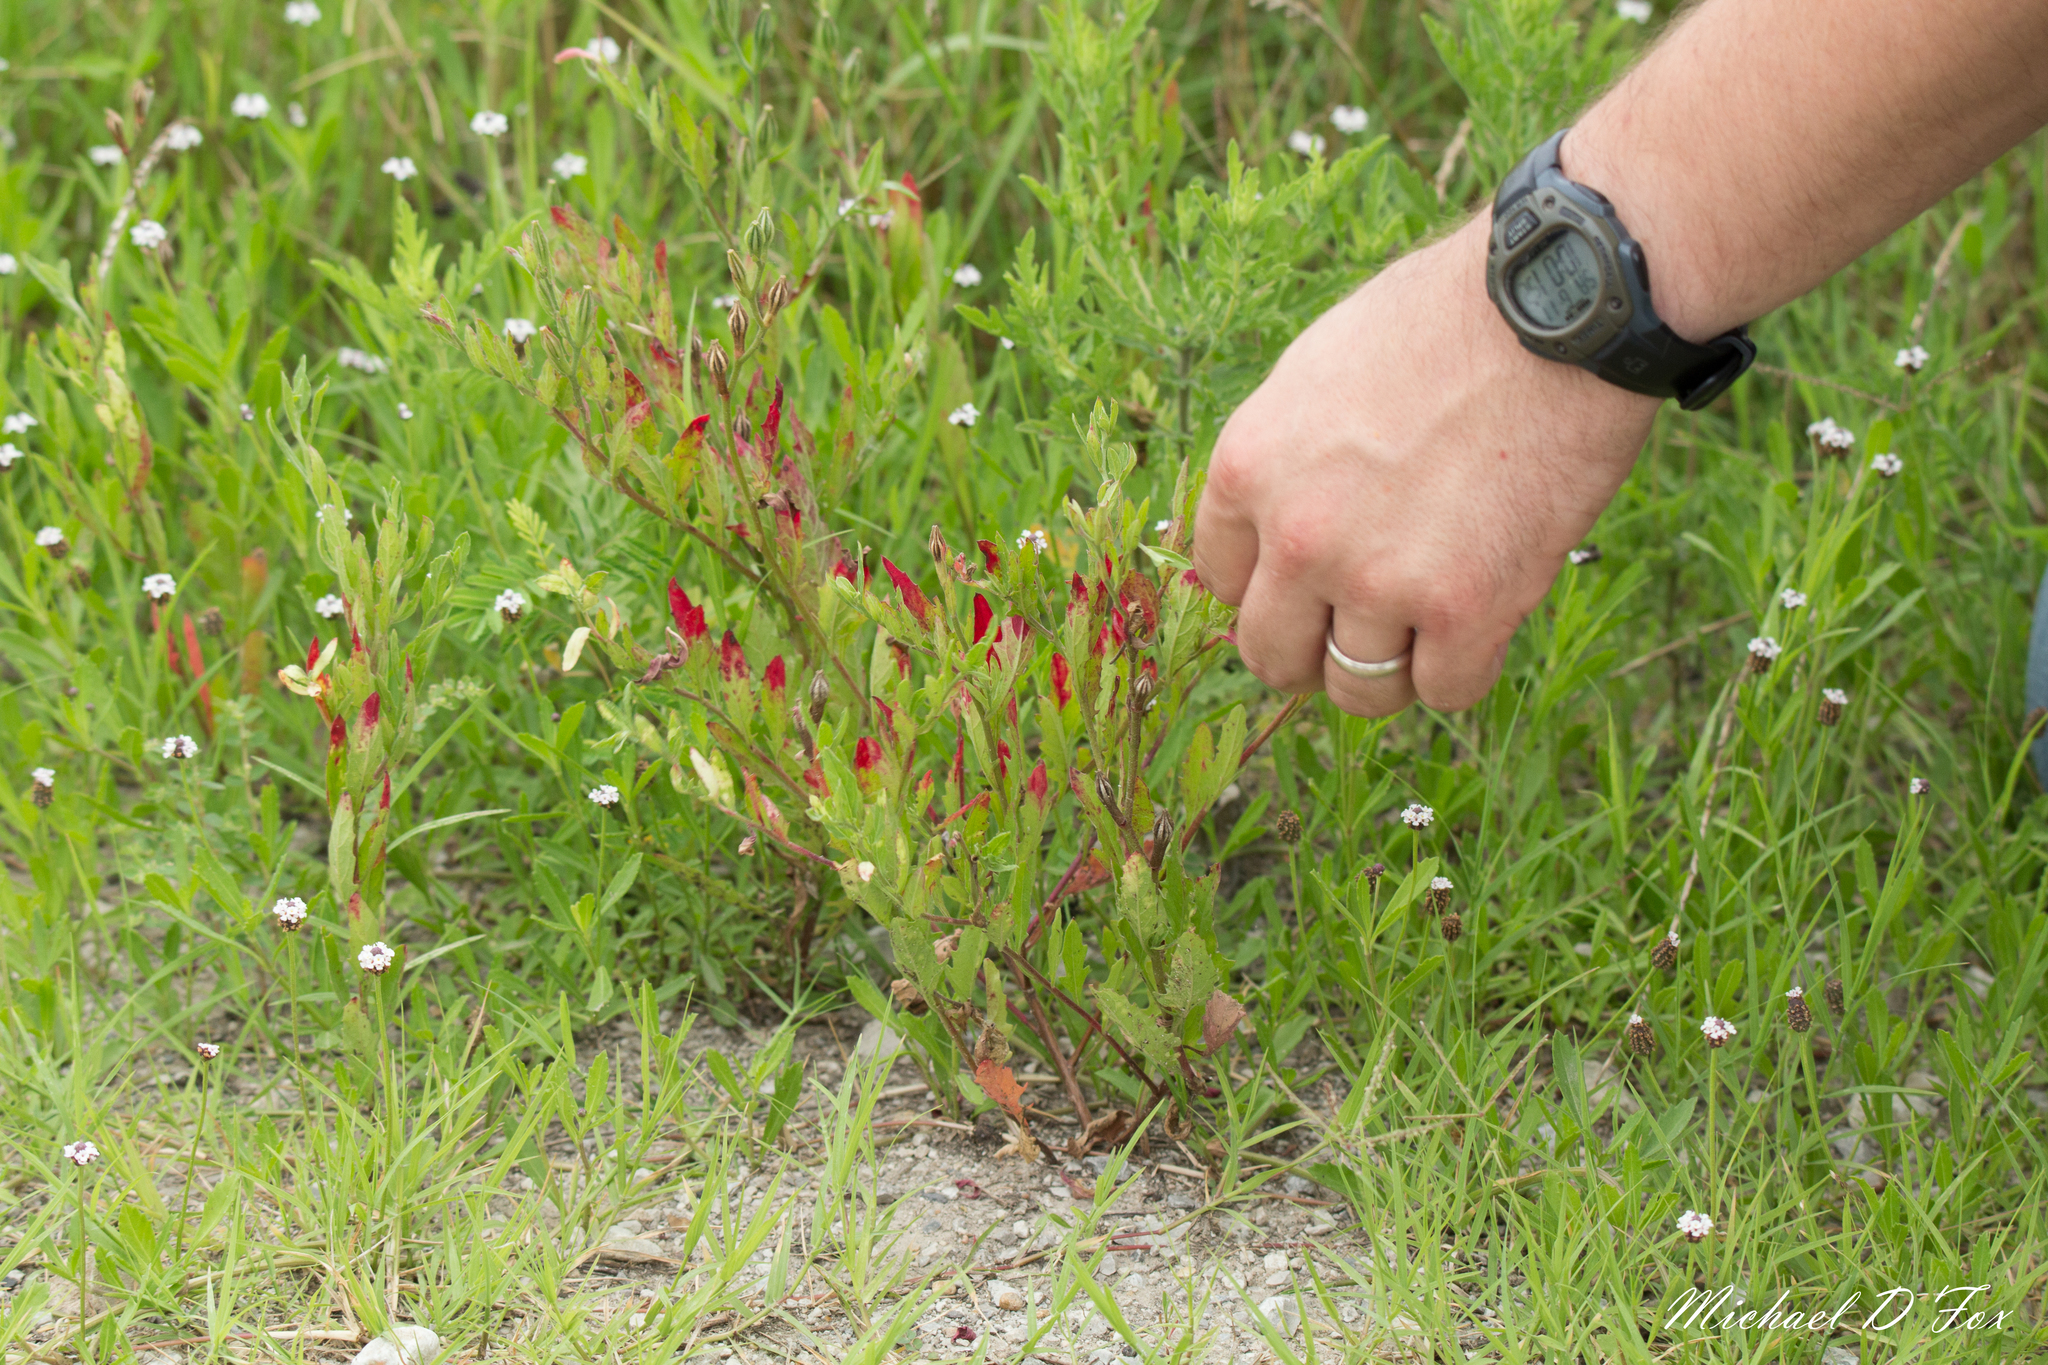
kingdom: Plantae
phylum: Tracheophyta
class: Magnoliopsida
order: Myrtales
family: Onagraceae
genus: Oenothera
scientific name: Oenothera speciosa
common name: White evening-primrose
